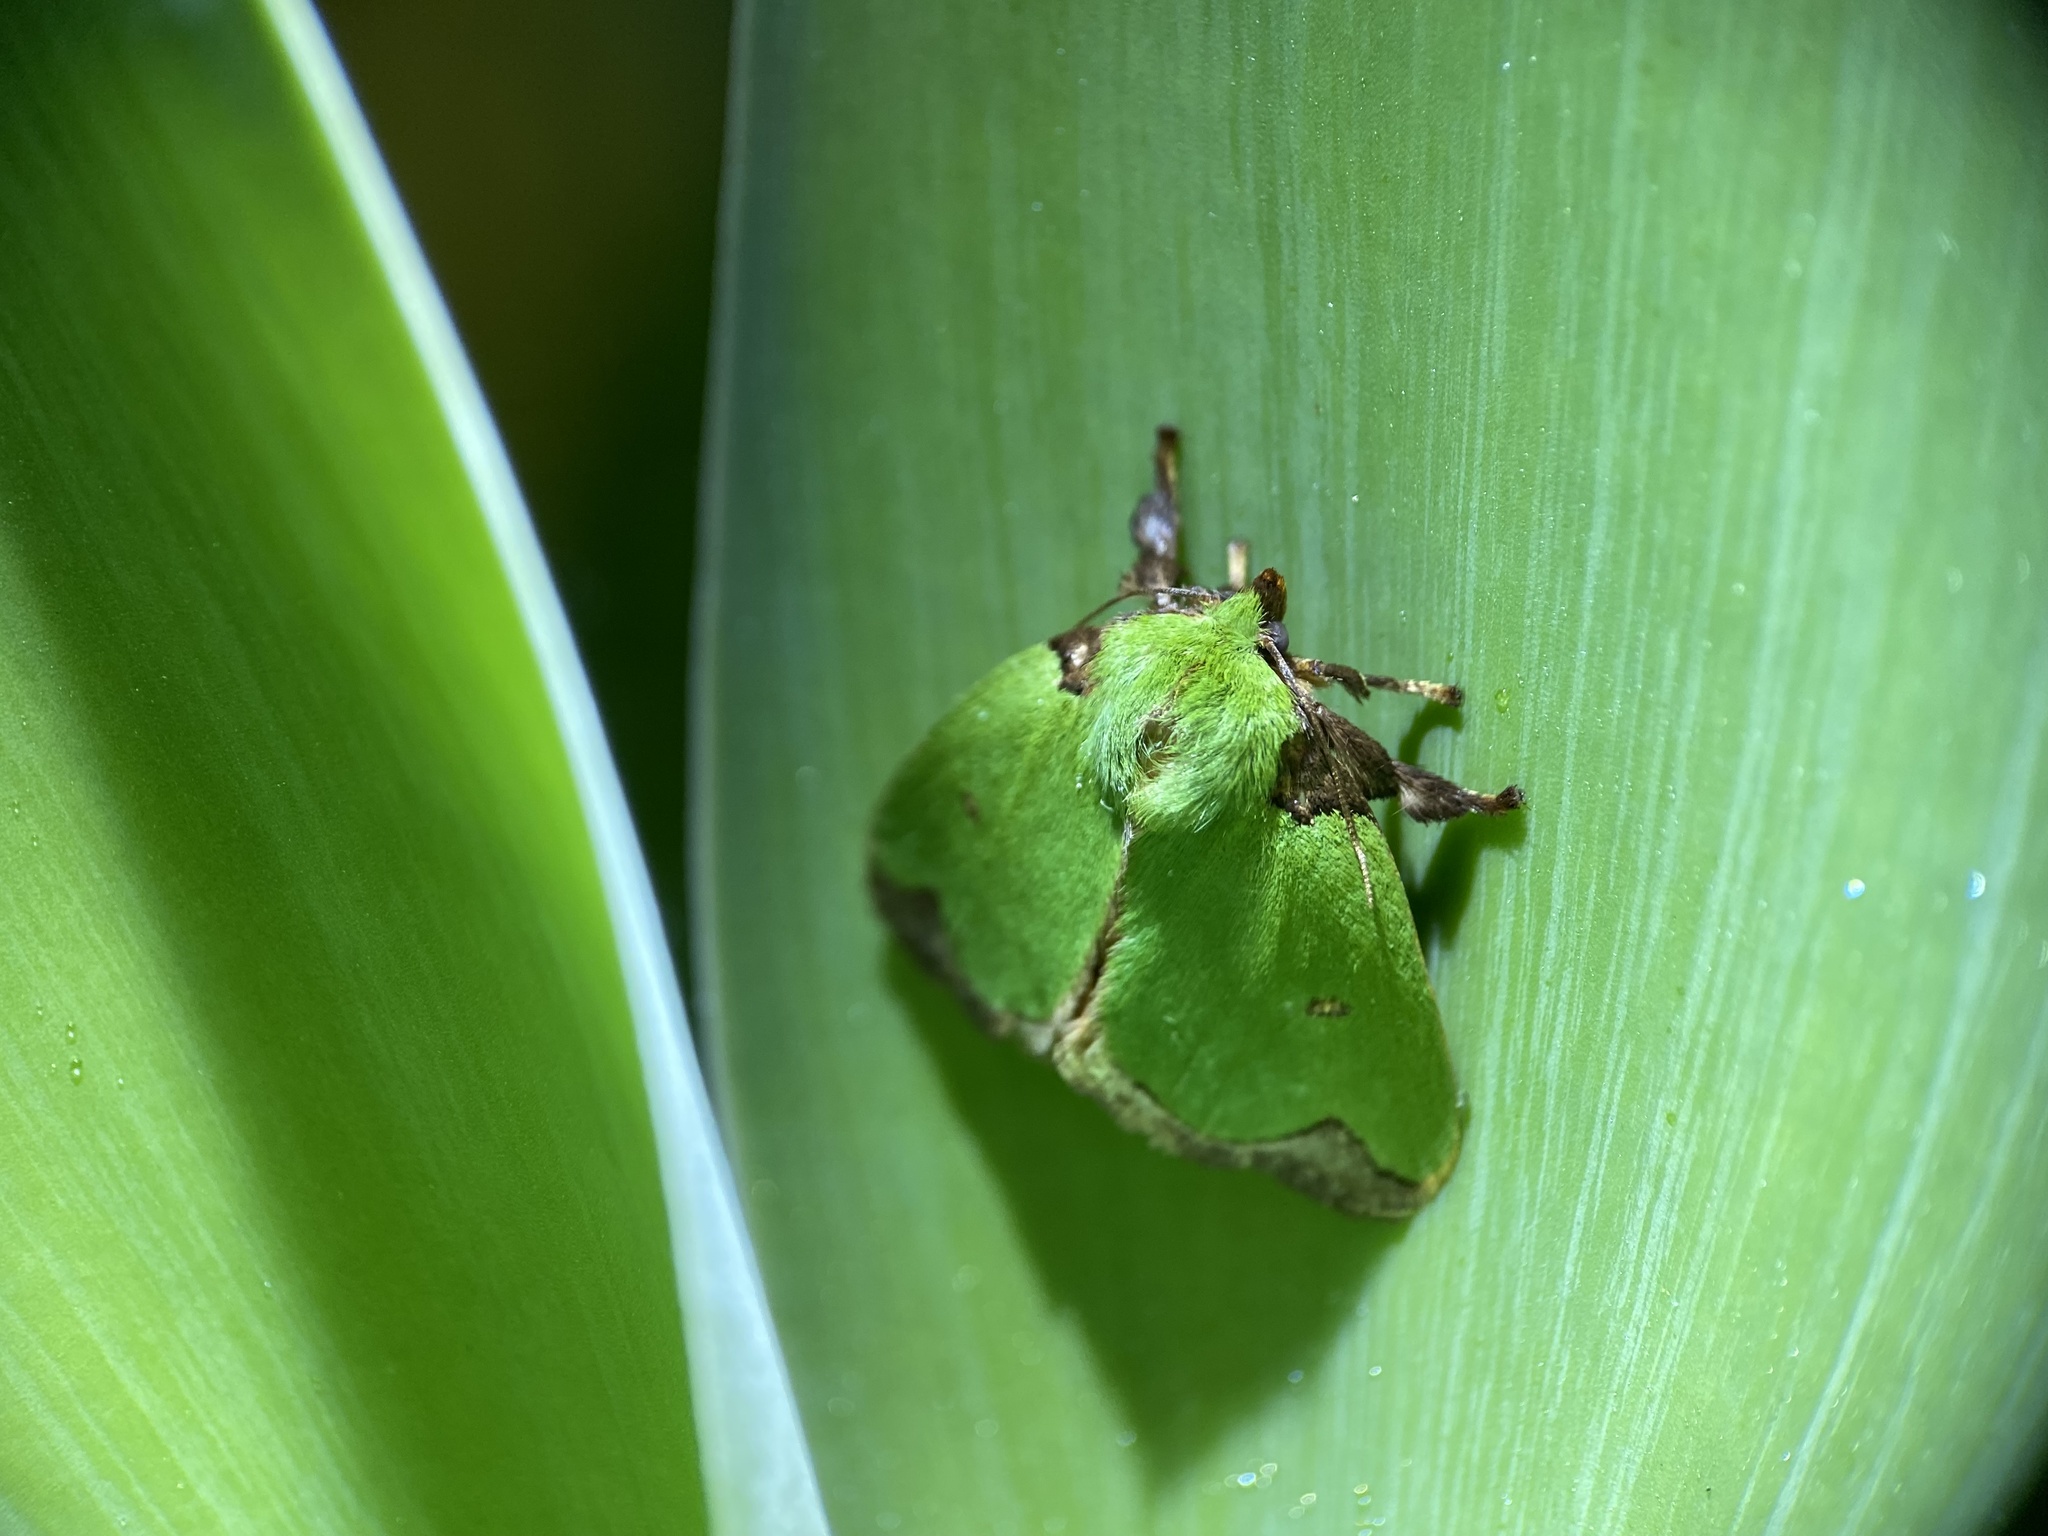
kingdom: Animalia
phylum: Arthropoda
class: Insecta
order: Lepidoptera
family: Limacodidae
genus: Parasa
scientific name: Parasa wellesca
